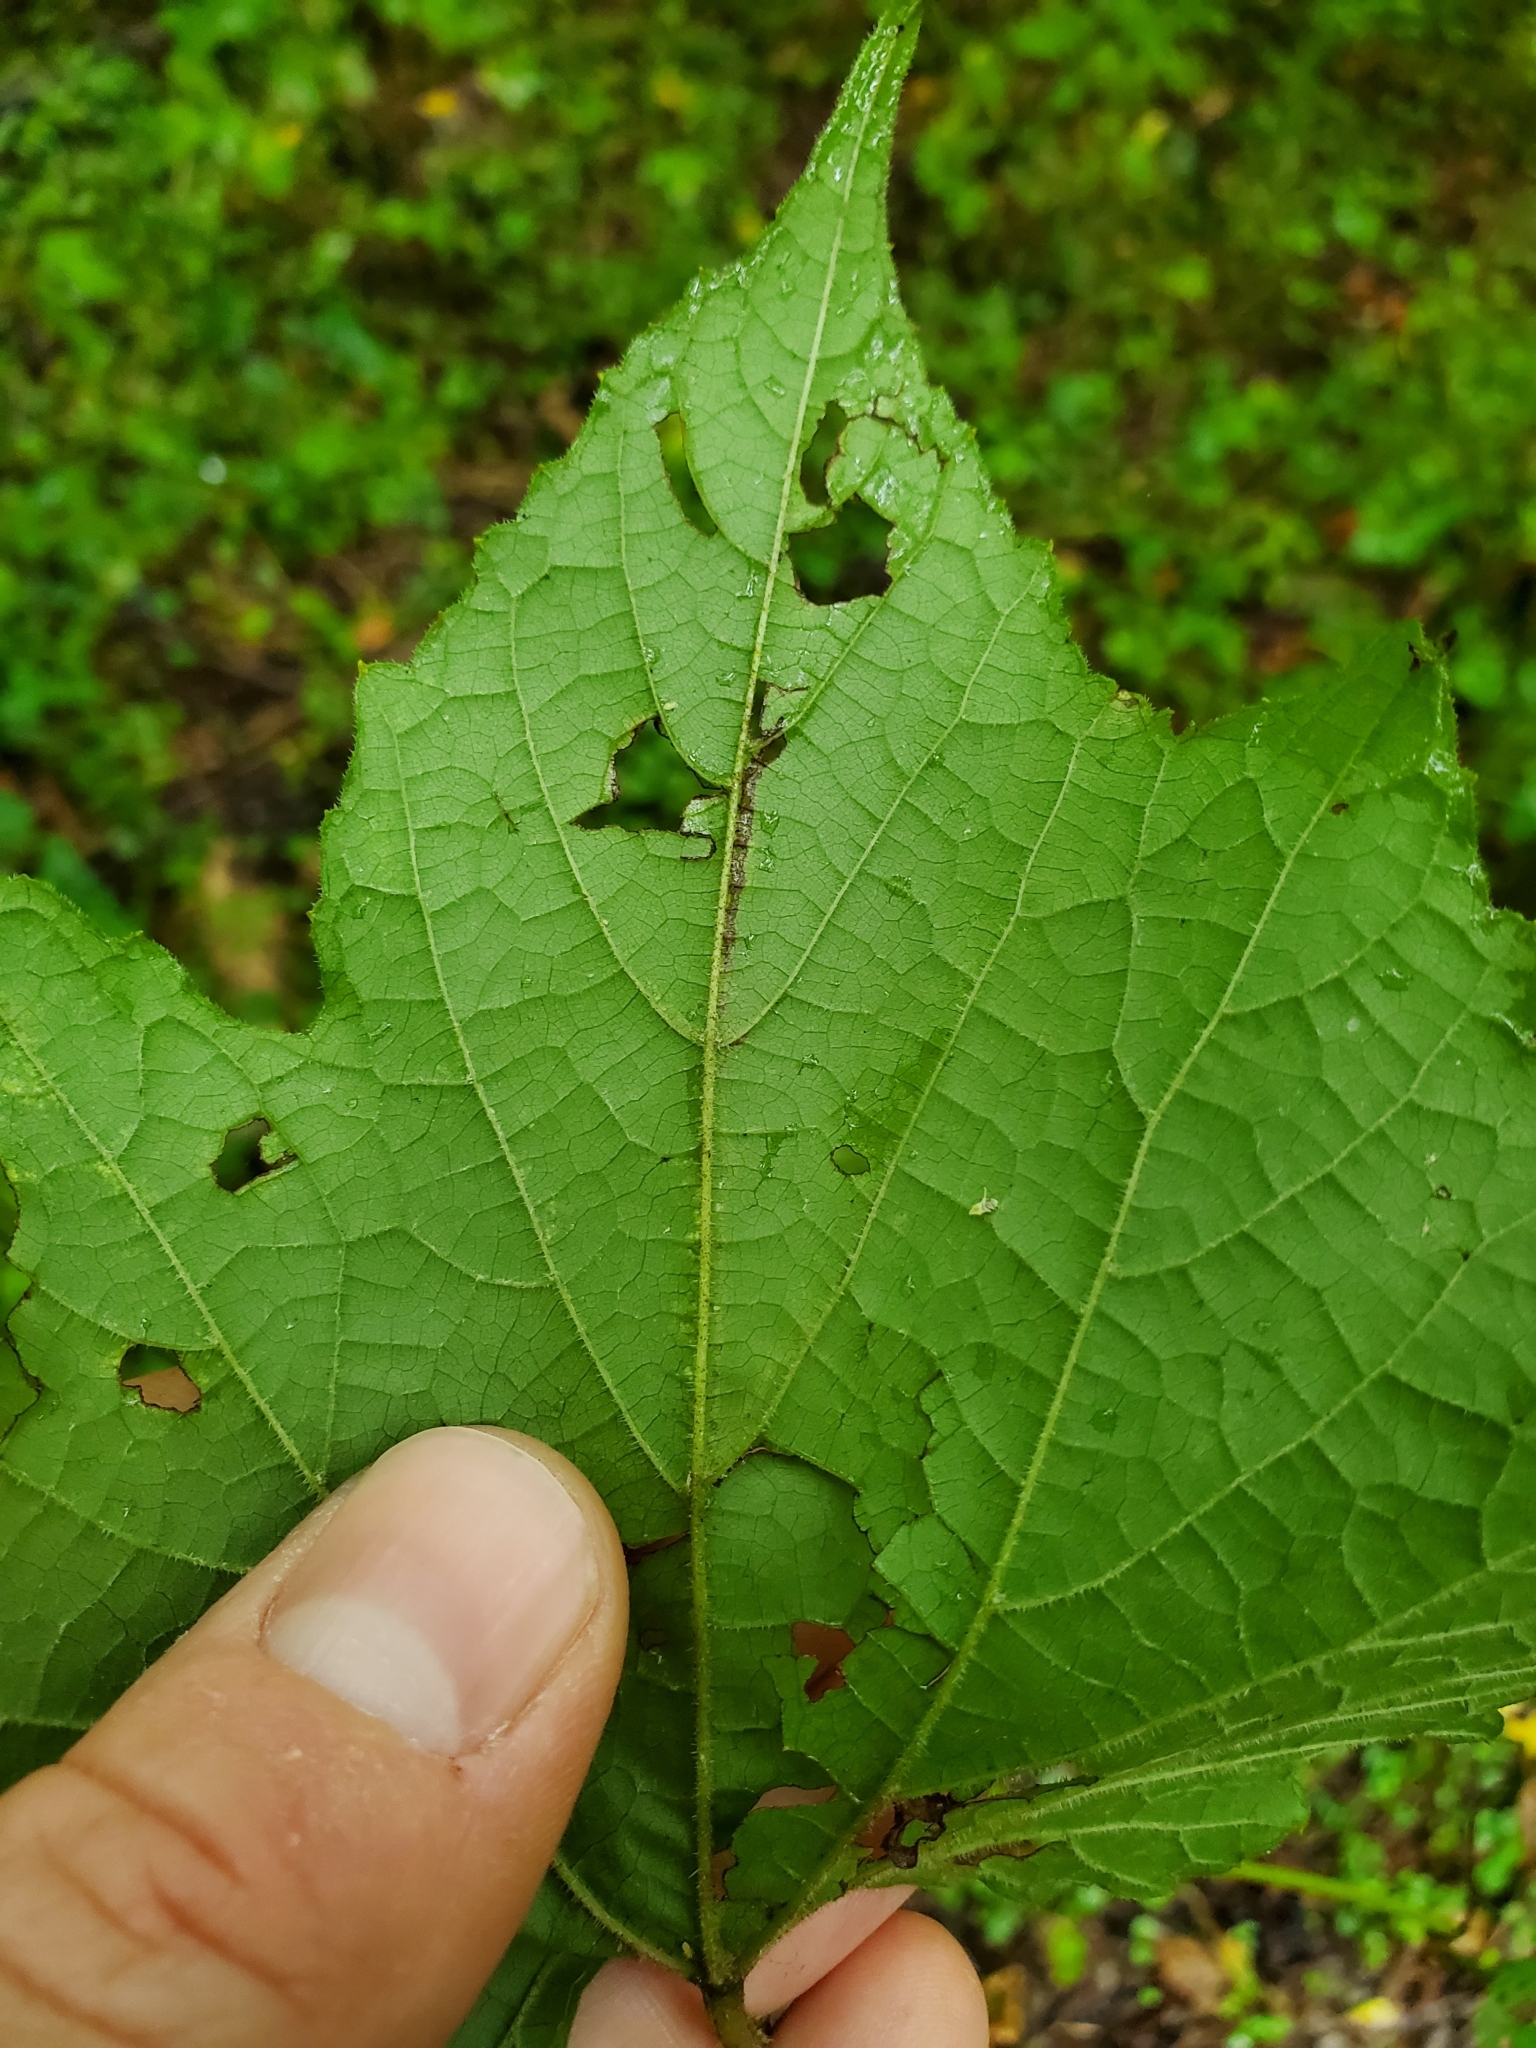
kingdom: Animalia
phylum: Arthropoda
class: Insecta
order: Lepidoptera
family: Gracillariidae
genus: Phyllocnistis
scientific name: Phyllocnistis vitifoliella
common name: Grape leaf-miner moth
